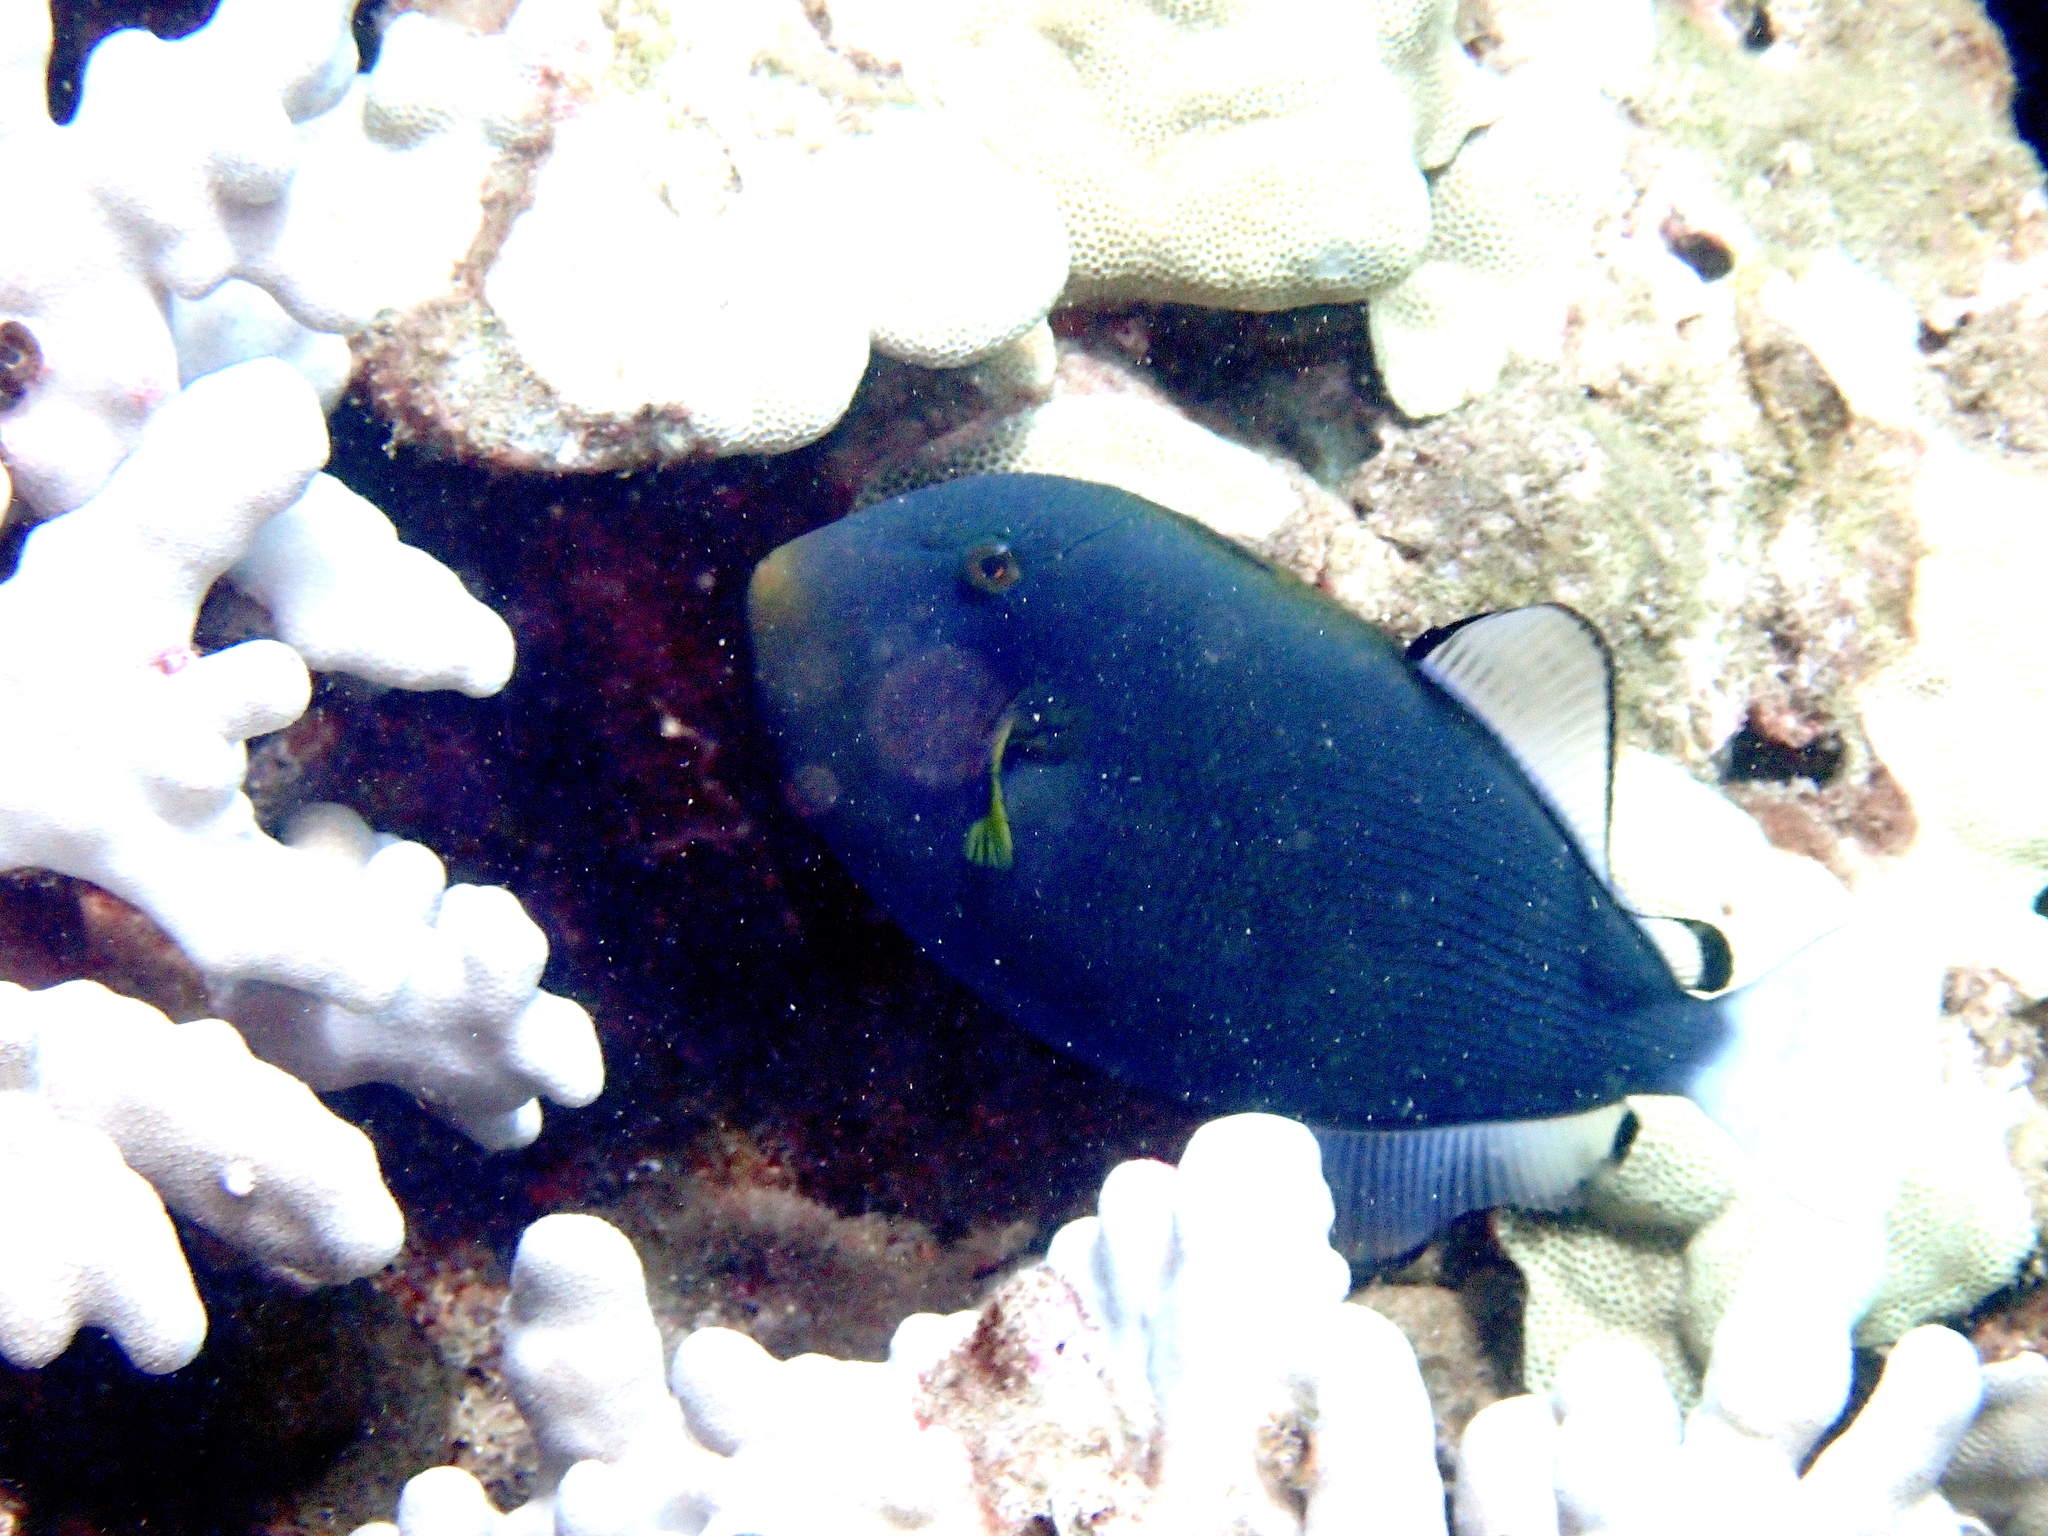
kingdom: Animalia
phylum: Chordata
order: Tetraodontiformes
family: Balistidae
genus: Melichthys
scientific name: Melichthys vidua
